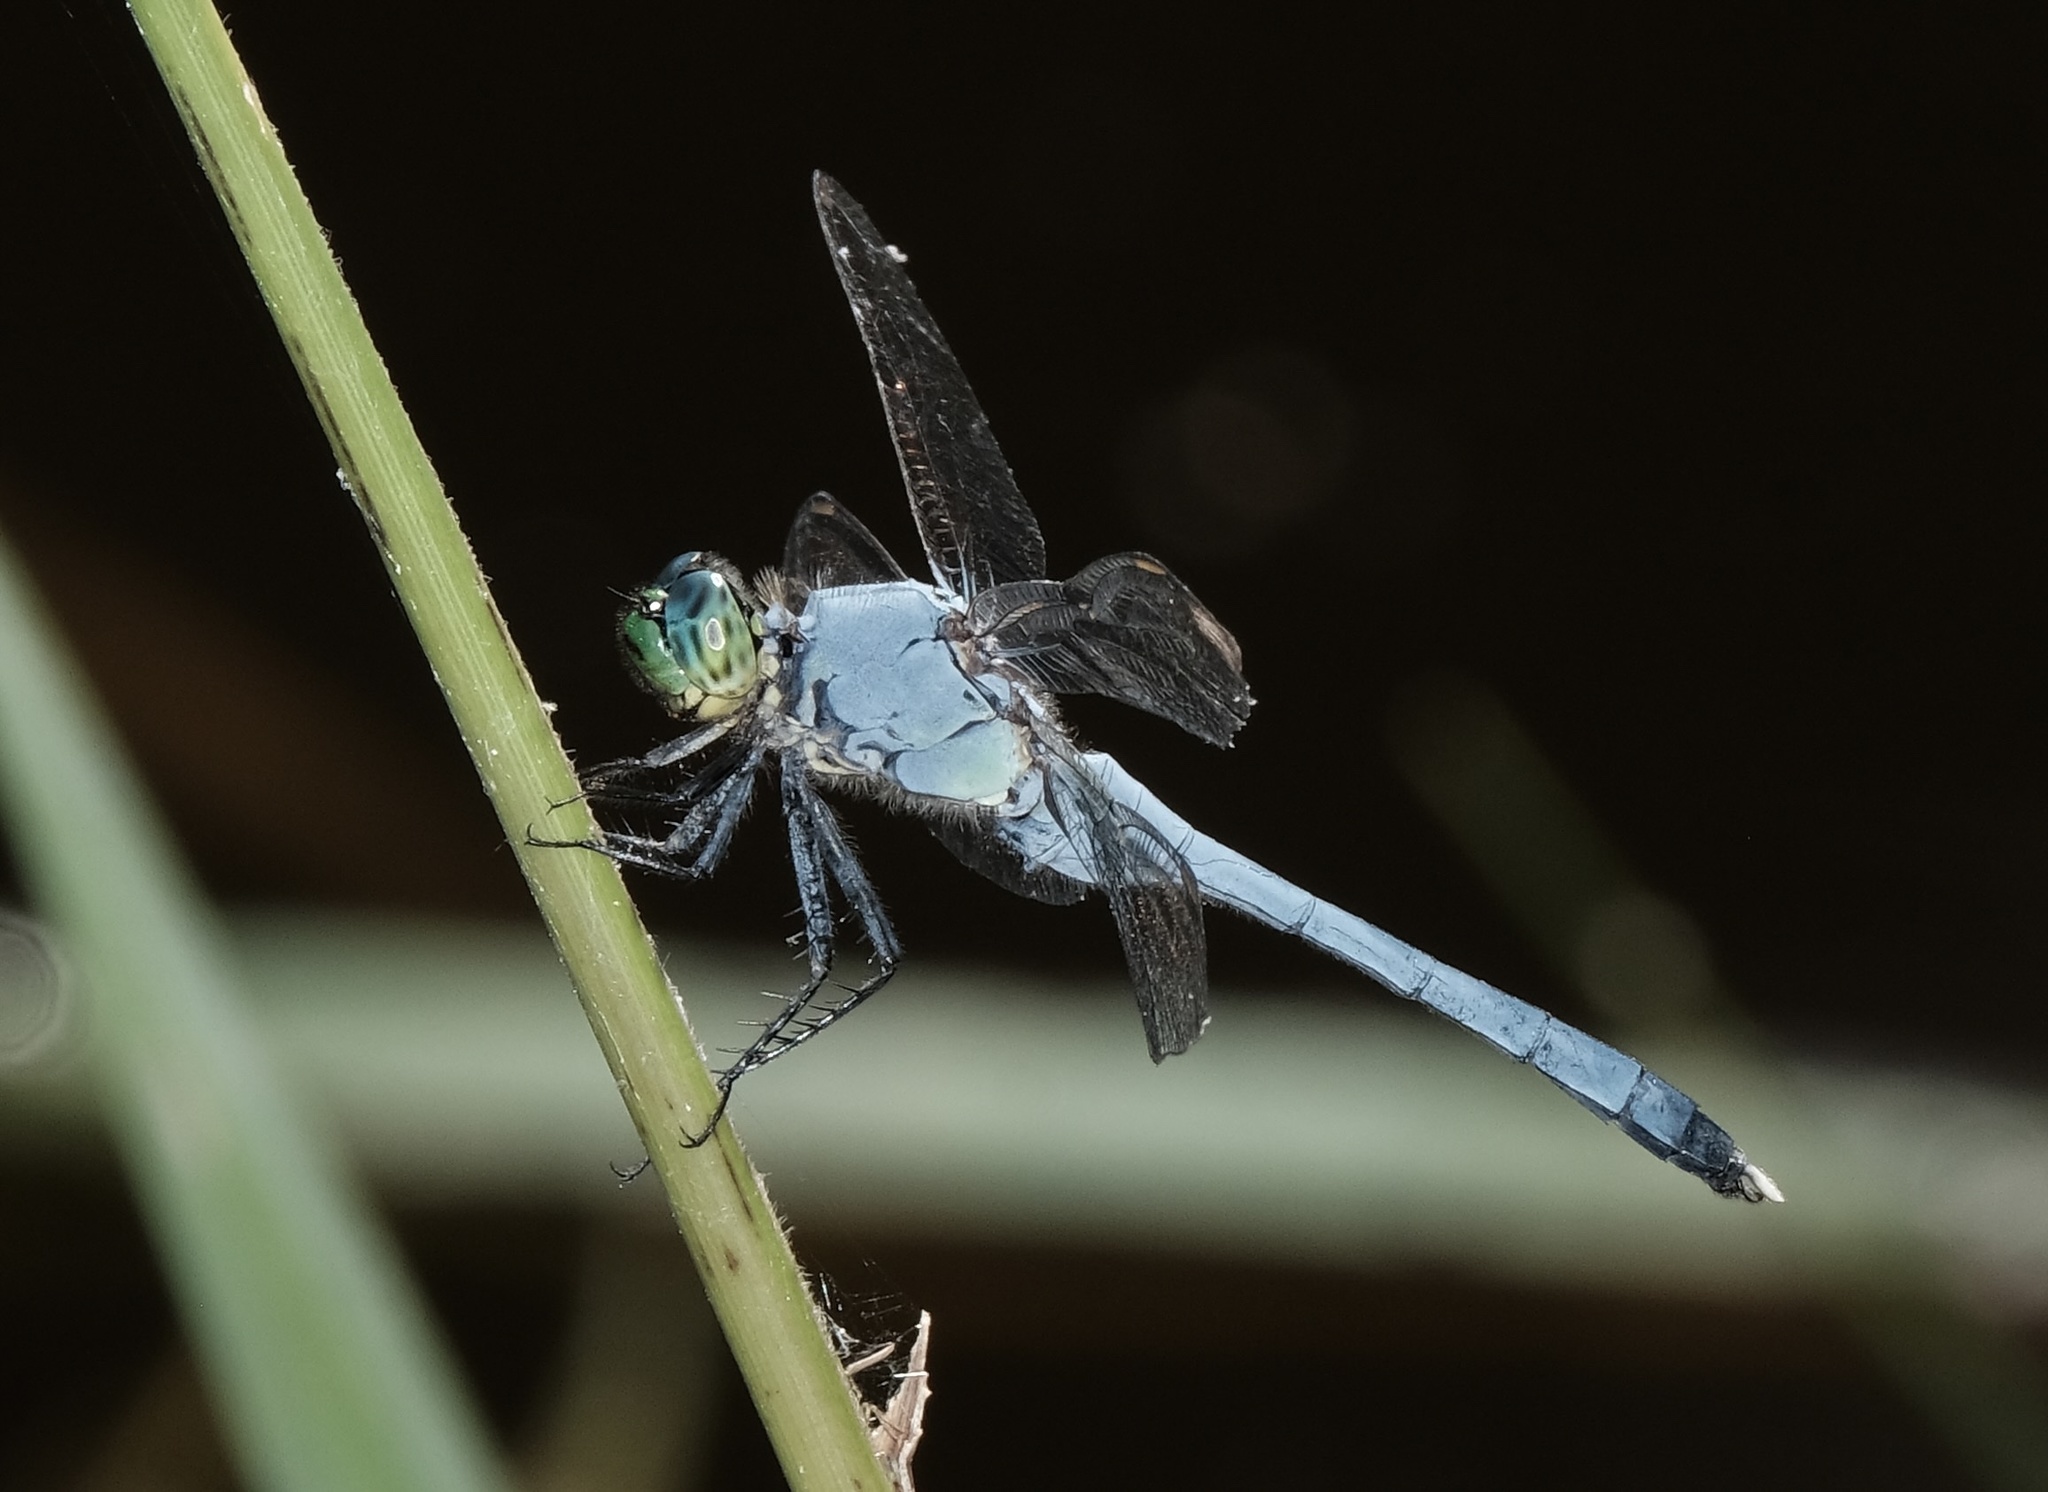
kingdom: Animalia
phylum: Arthropoda
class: Insecta
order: Odonata
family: Libellulidae
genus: Erythemis
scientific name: Erythemis simplicicollis
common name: Eastern pondhawk
